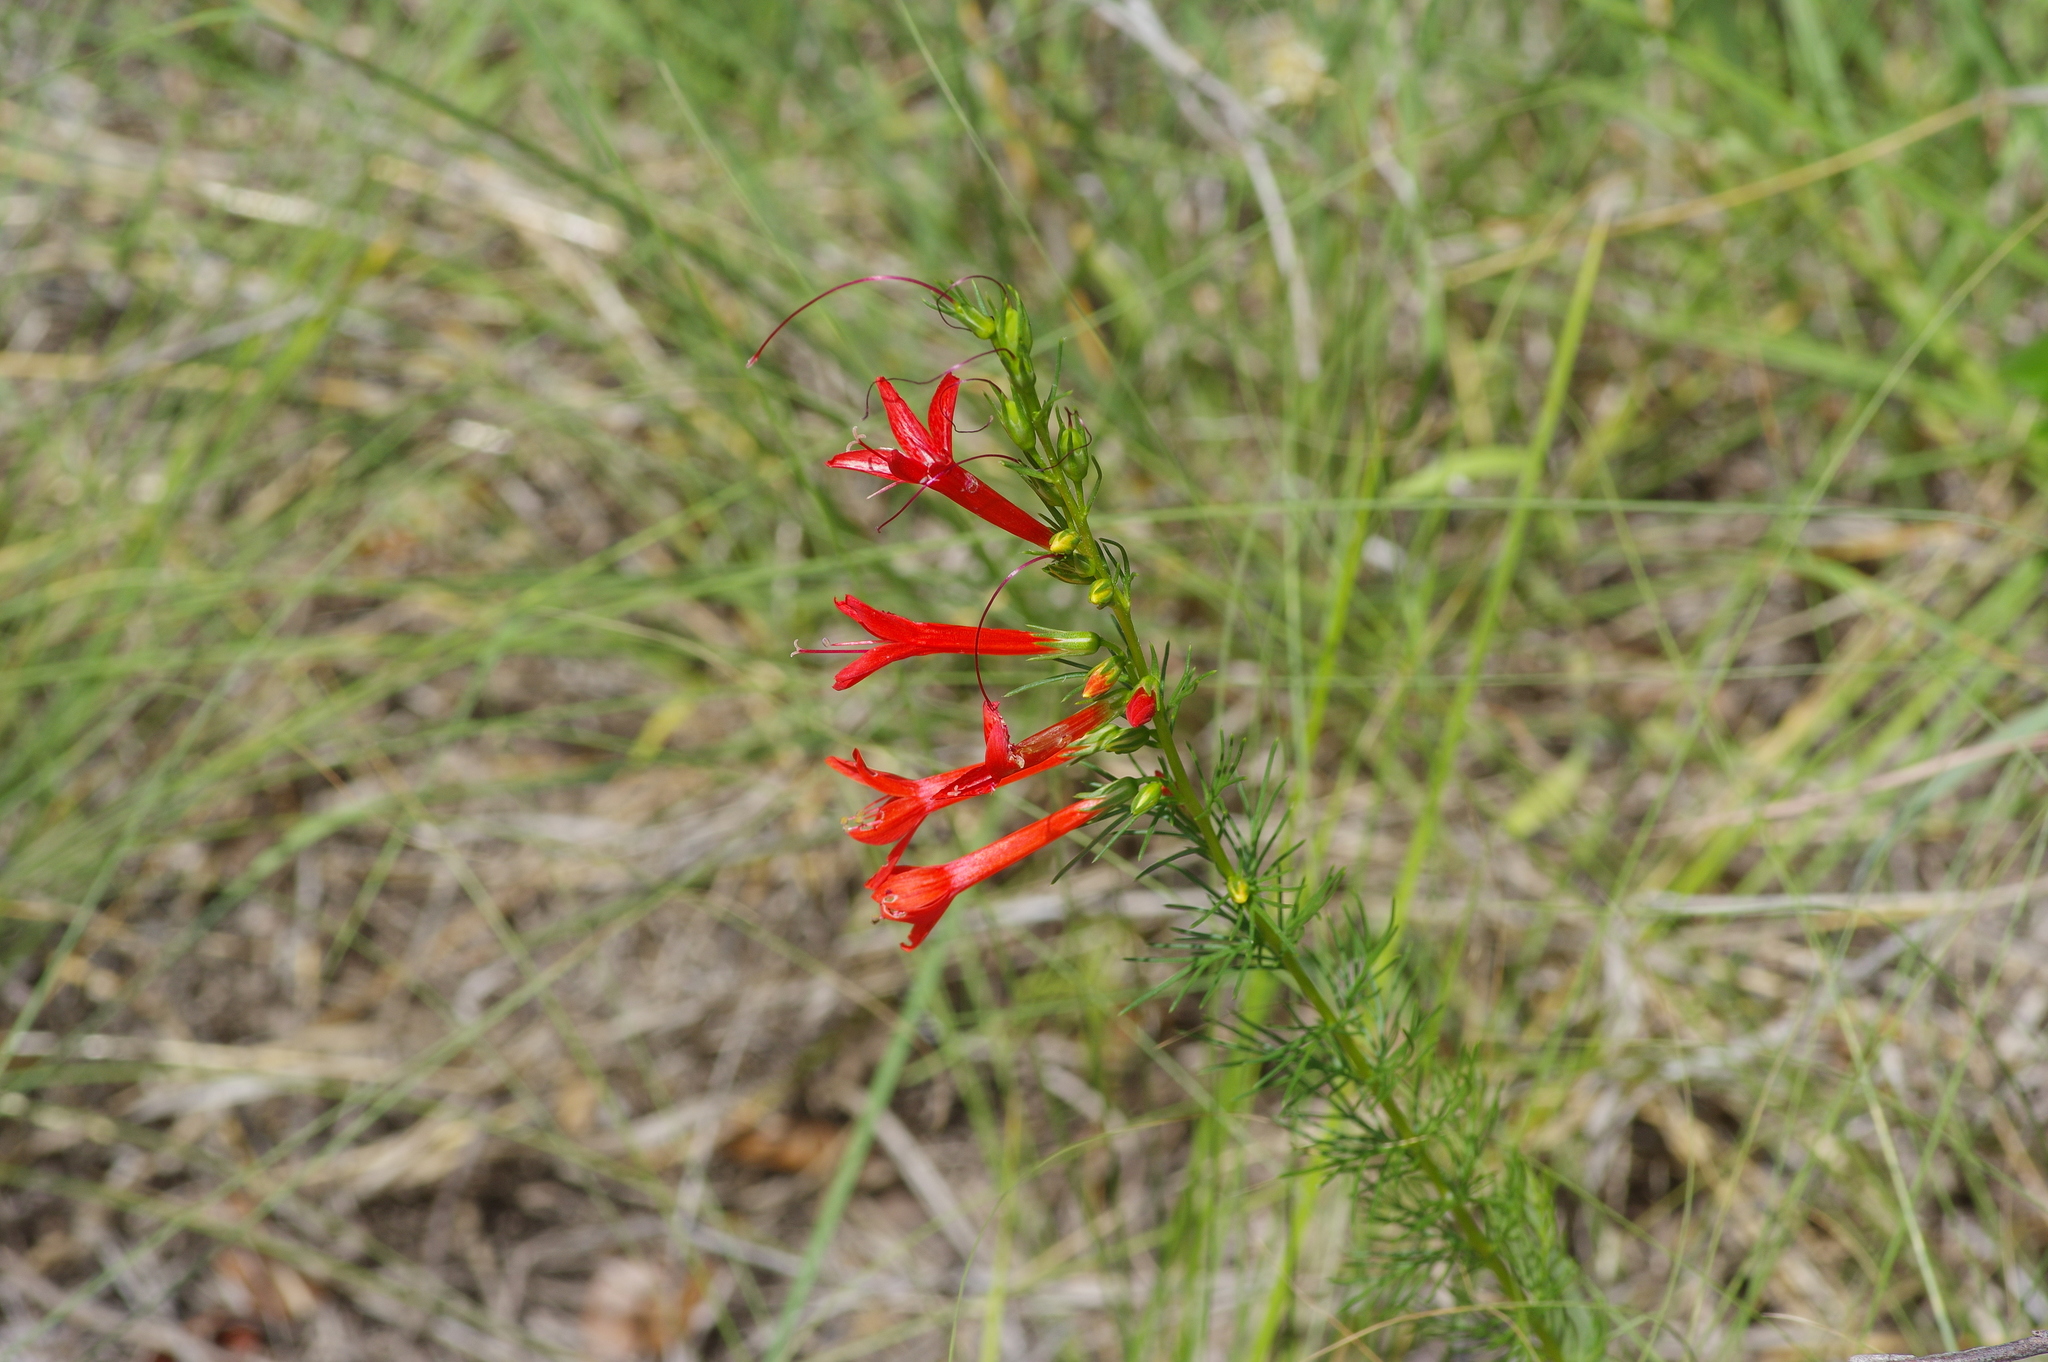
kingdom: Plantae
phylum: Tracheophyta
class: Magnoliopsida
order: Ericales
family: Polemoniaceae
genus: Ipomopsis
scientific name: Ipomopsis rubra
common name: Skyrocket
